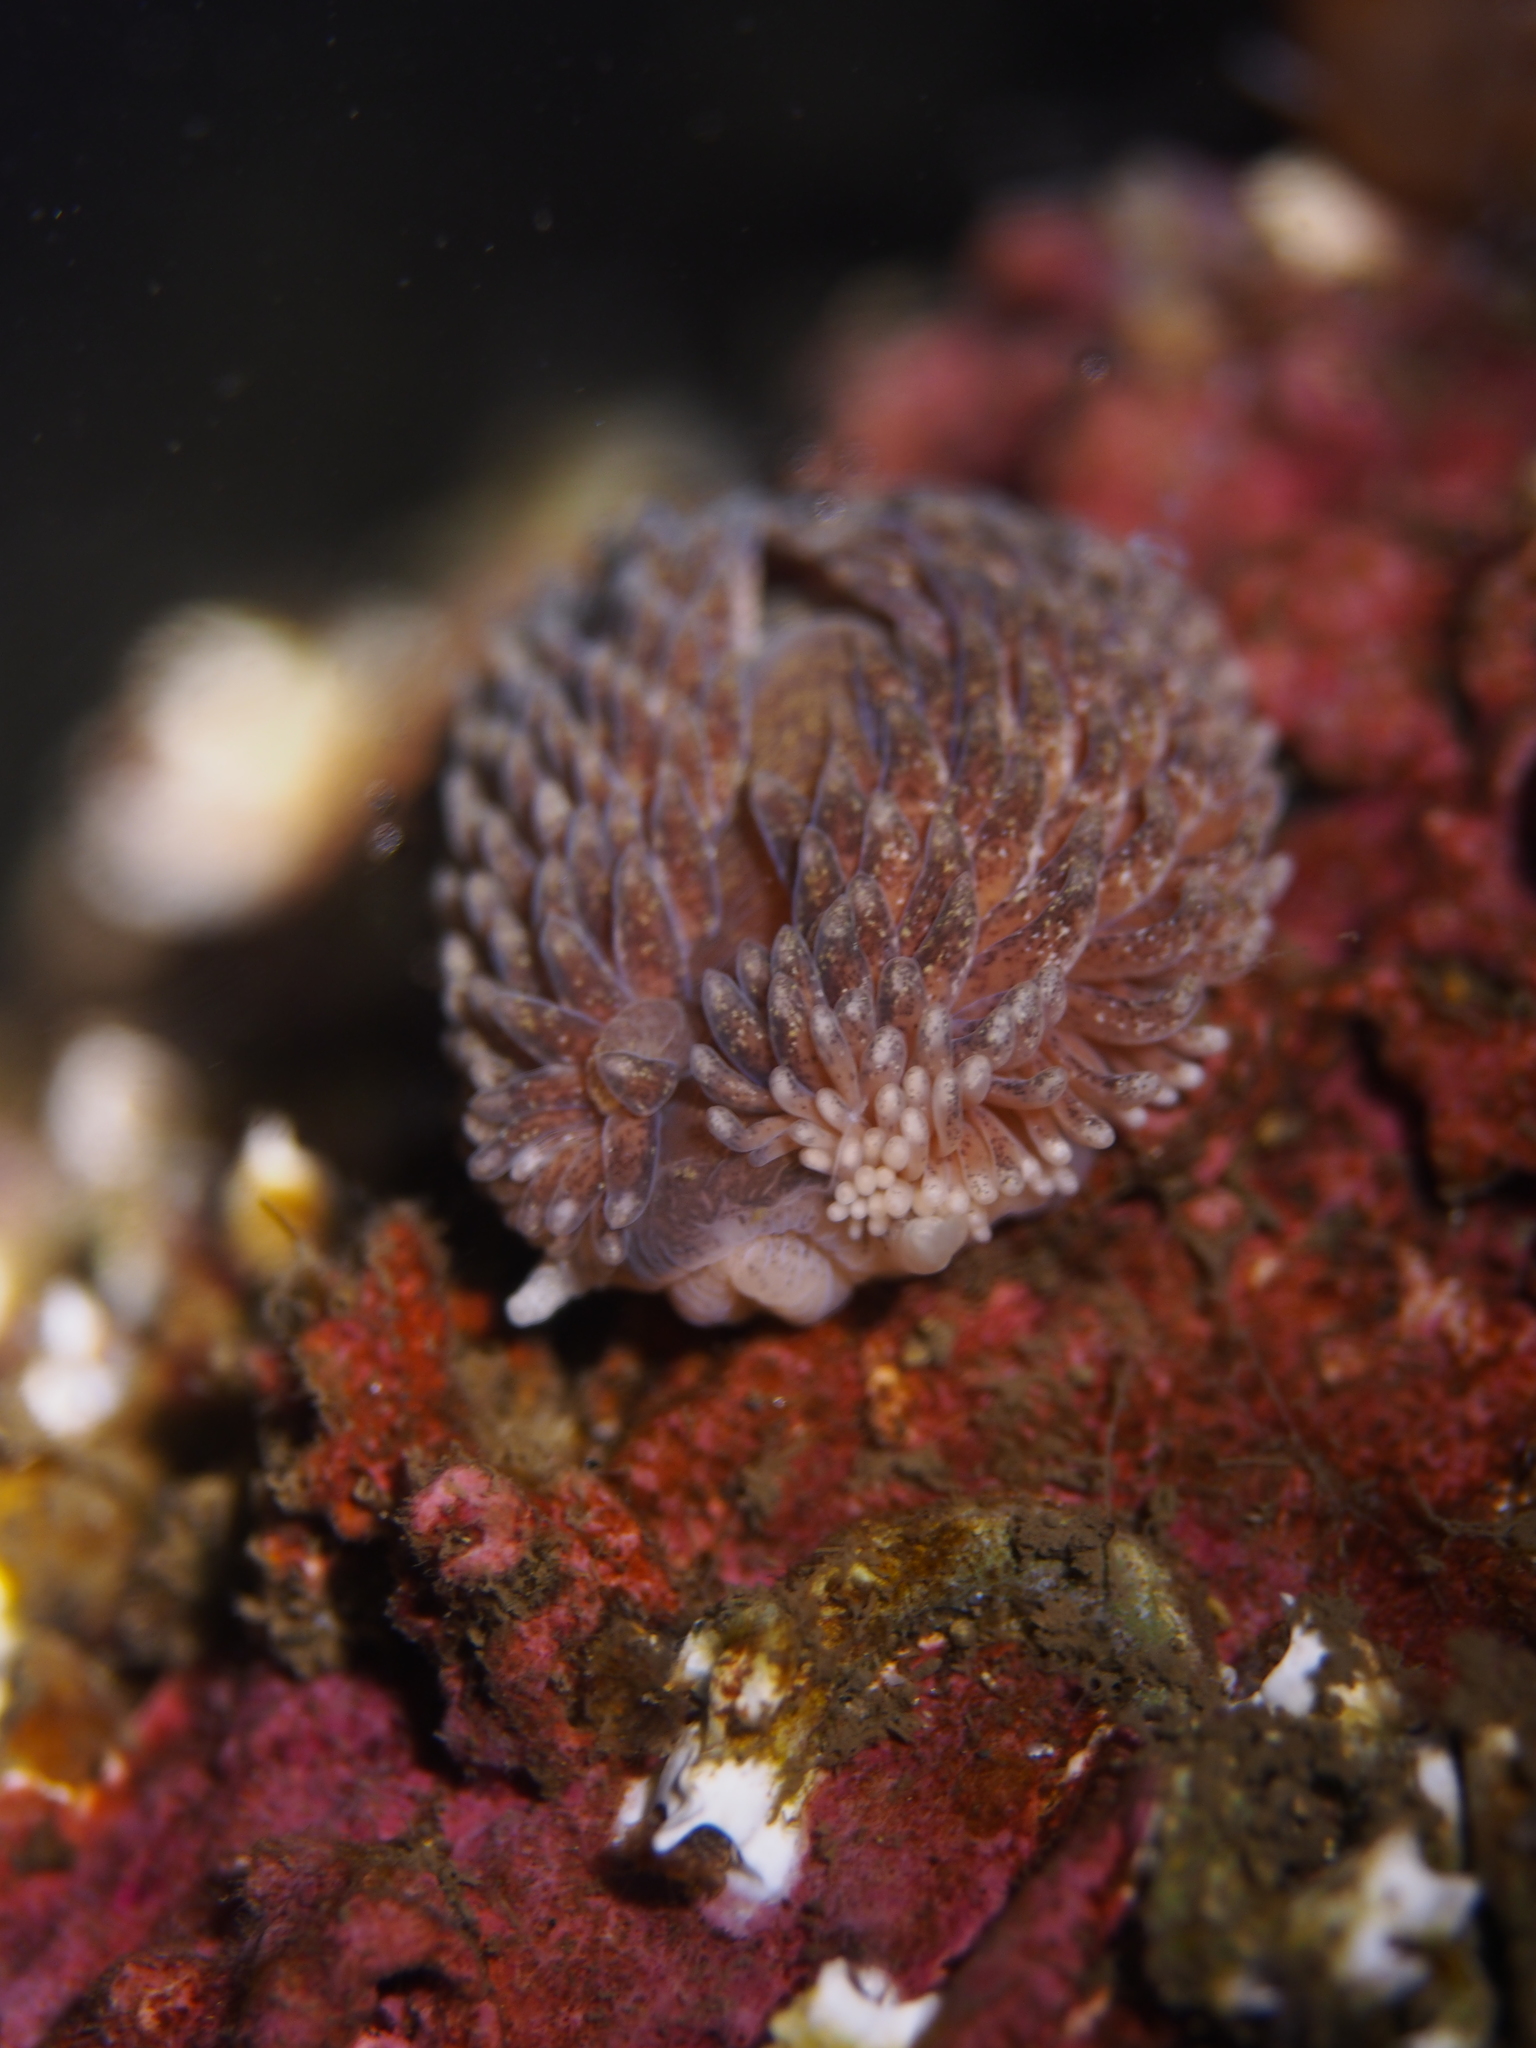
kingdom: Animalia
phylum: Mollusca
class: Gastropoda
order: Nudibranchia
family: Aeolidiidae
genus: Aeolidia
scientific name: Aeolidia papillosa
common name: Common grey sea slug
